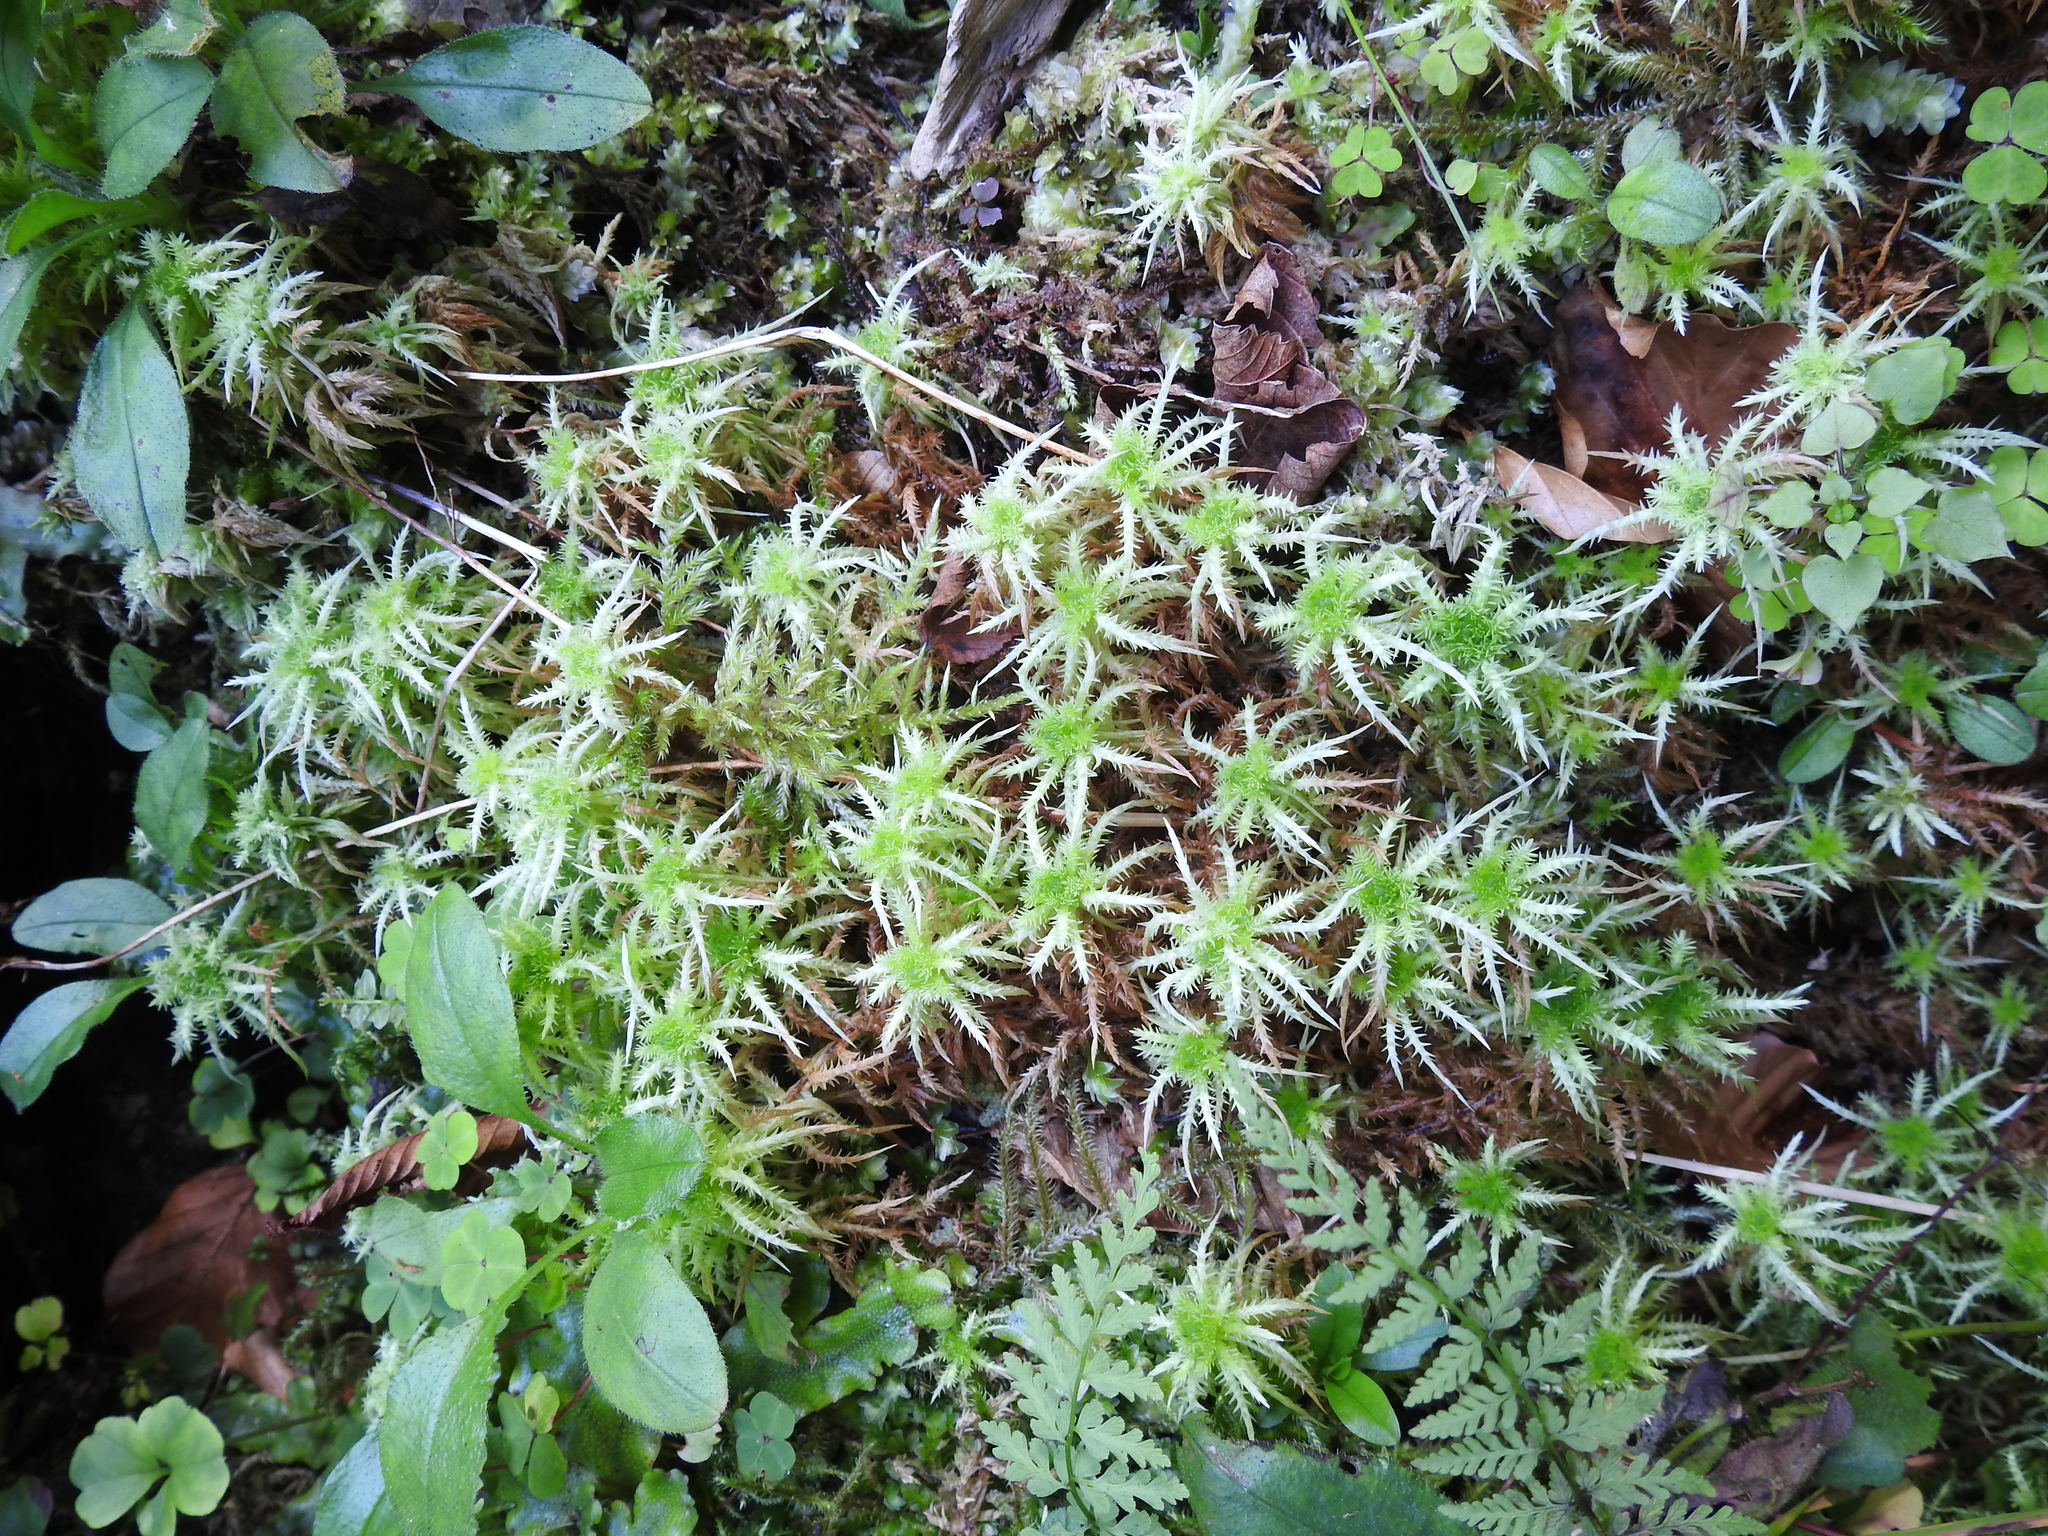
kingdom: Plantae
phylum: Bryophyta
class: Sphagnopsida
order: Sphagnales
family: Sphagnaceae
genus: Sphagnum
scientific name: Sphagnum squarrosum
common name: Shaggy peat moss
